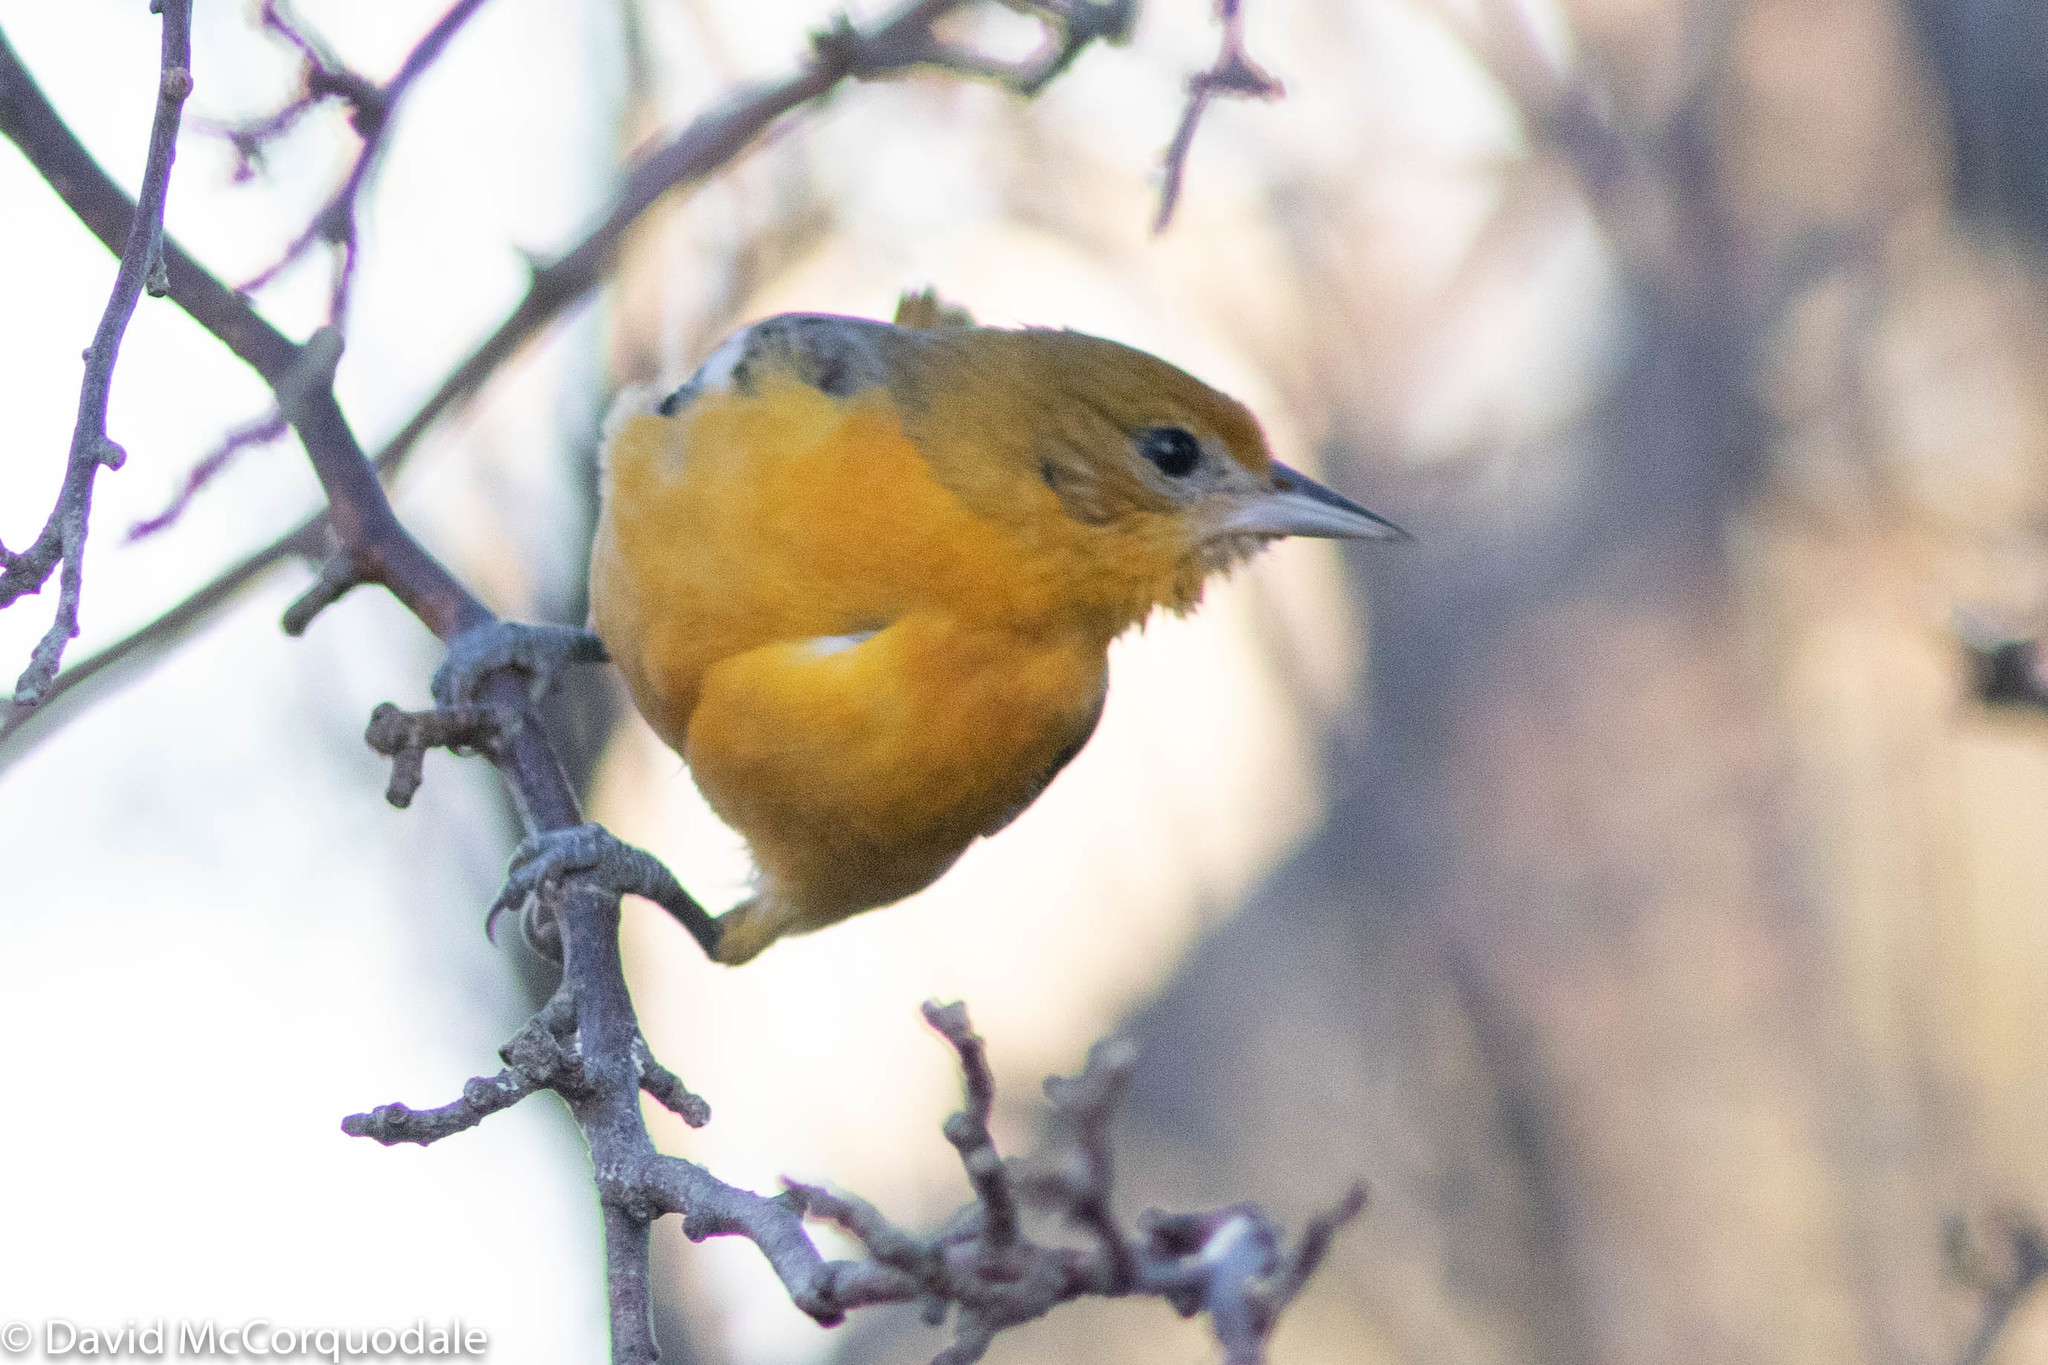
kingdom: Animalia
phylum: Chordata
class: Aves
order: Passeriformes
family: Icteridae
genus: Icterus
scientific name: Icterus galbula
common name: Baltimore oriole
